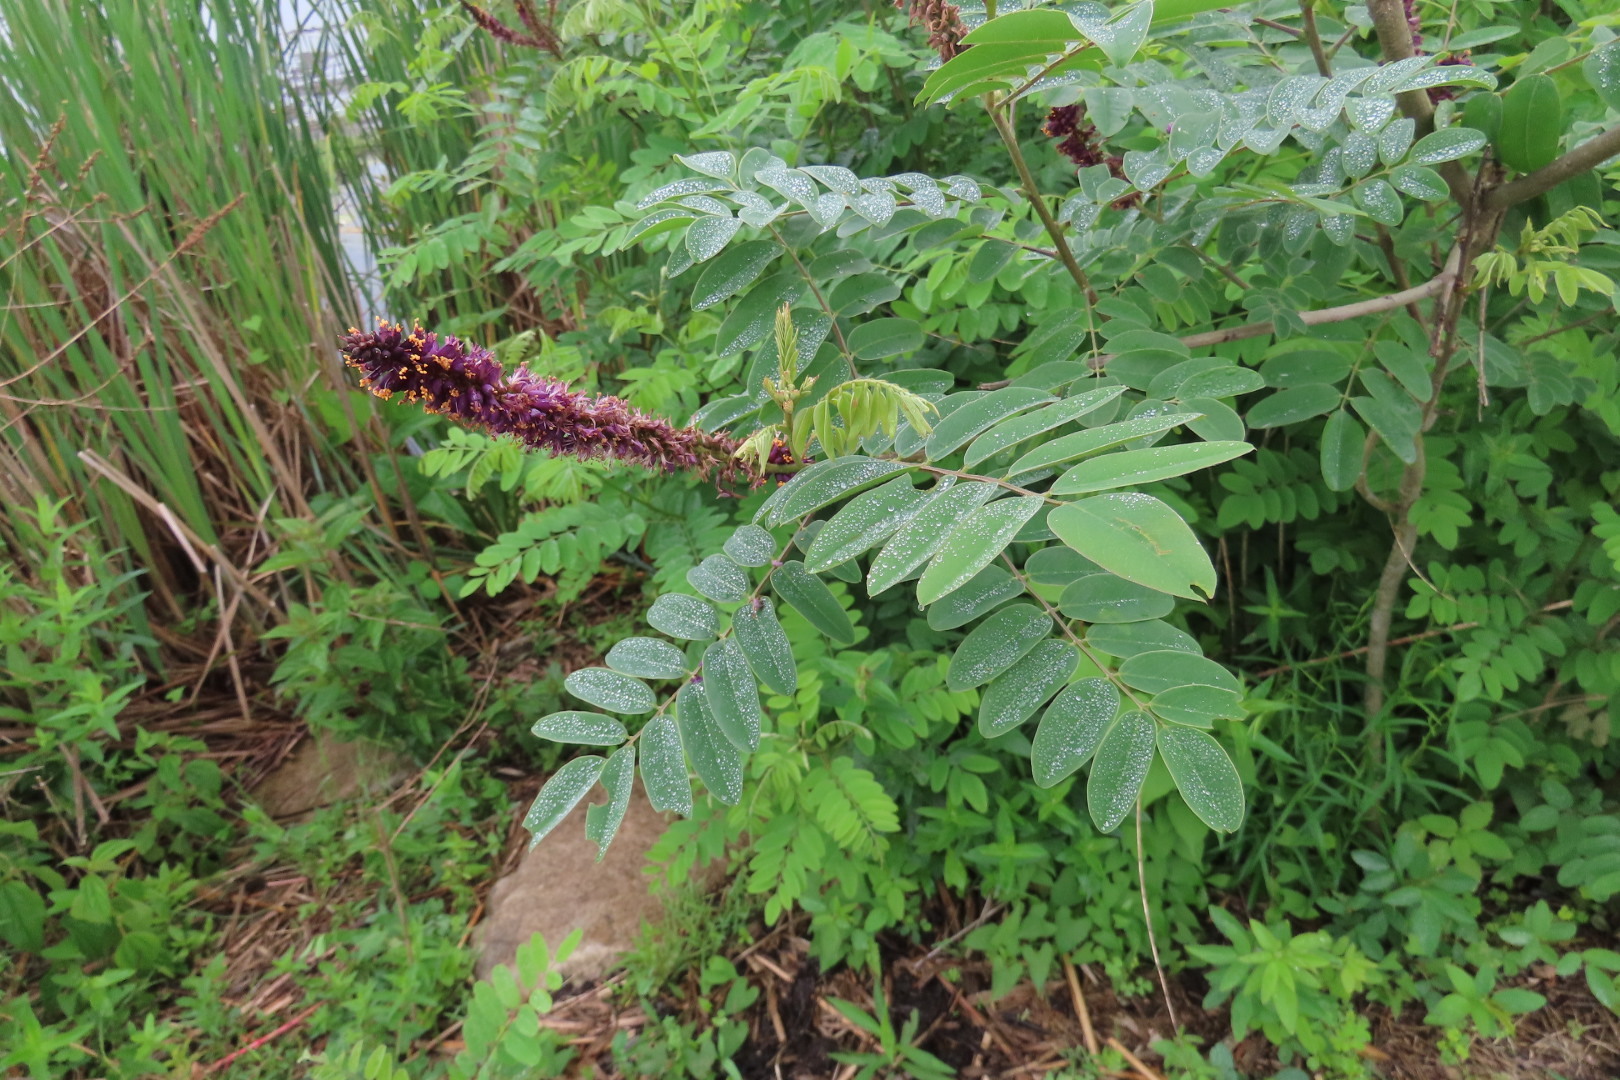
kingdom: Plantae
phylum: Tracheophyta
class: Magnoliopsida
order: Fabales
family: Fabaceae
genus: Amorpha
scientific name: Amorpha fruticosa
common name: False indigo
